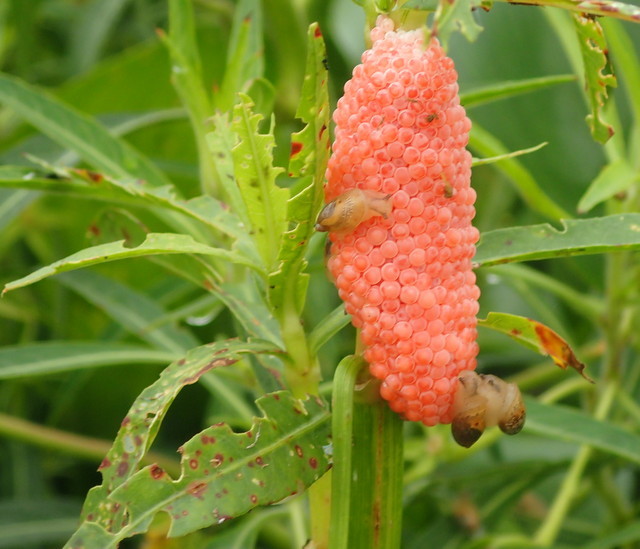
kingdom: Animalia
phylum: Mollusca
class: Gastropoda
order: Architaenioglossa
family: Ampullariidae
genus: Pomacea
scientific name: Pomacea maculata
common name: Giant applesnail
